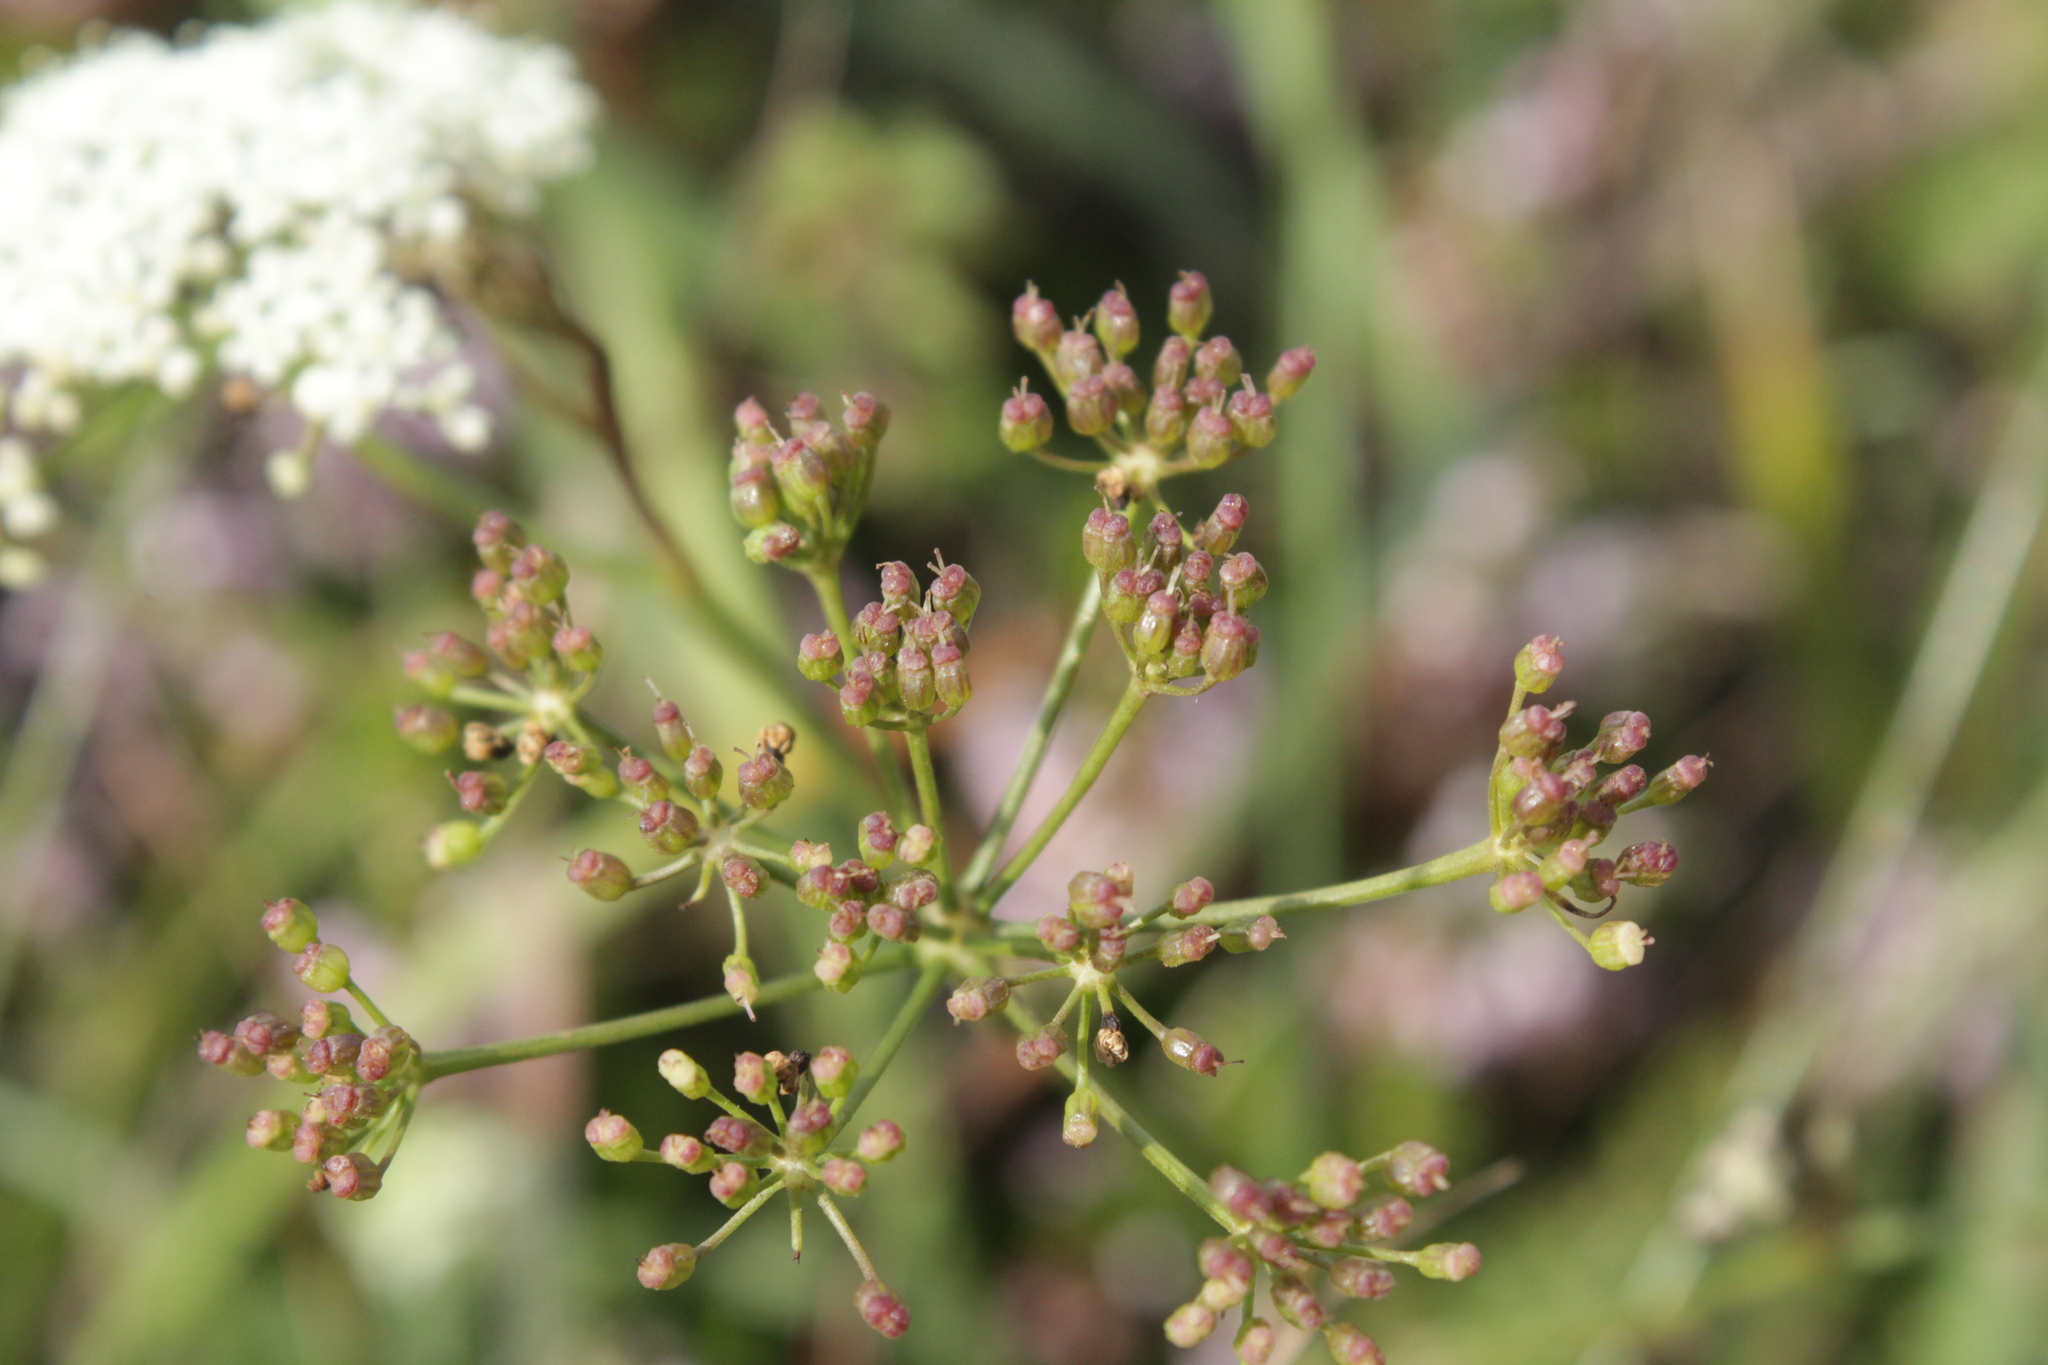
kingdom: Plantae
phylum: Tracheophyta
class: Magnoliopsida
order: Apiales
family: Apiaceae
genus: Pimpinella
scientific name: Pimpinella saxifraga
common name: Burnet-saxifrage
